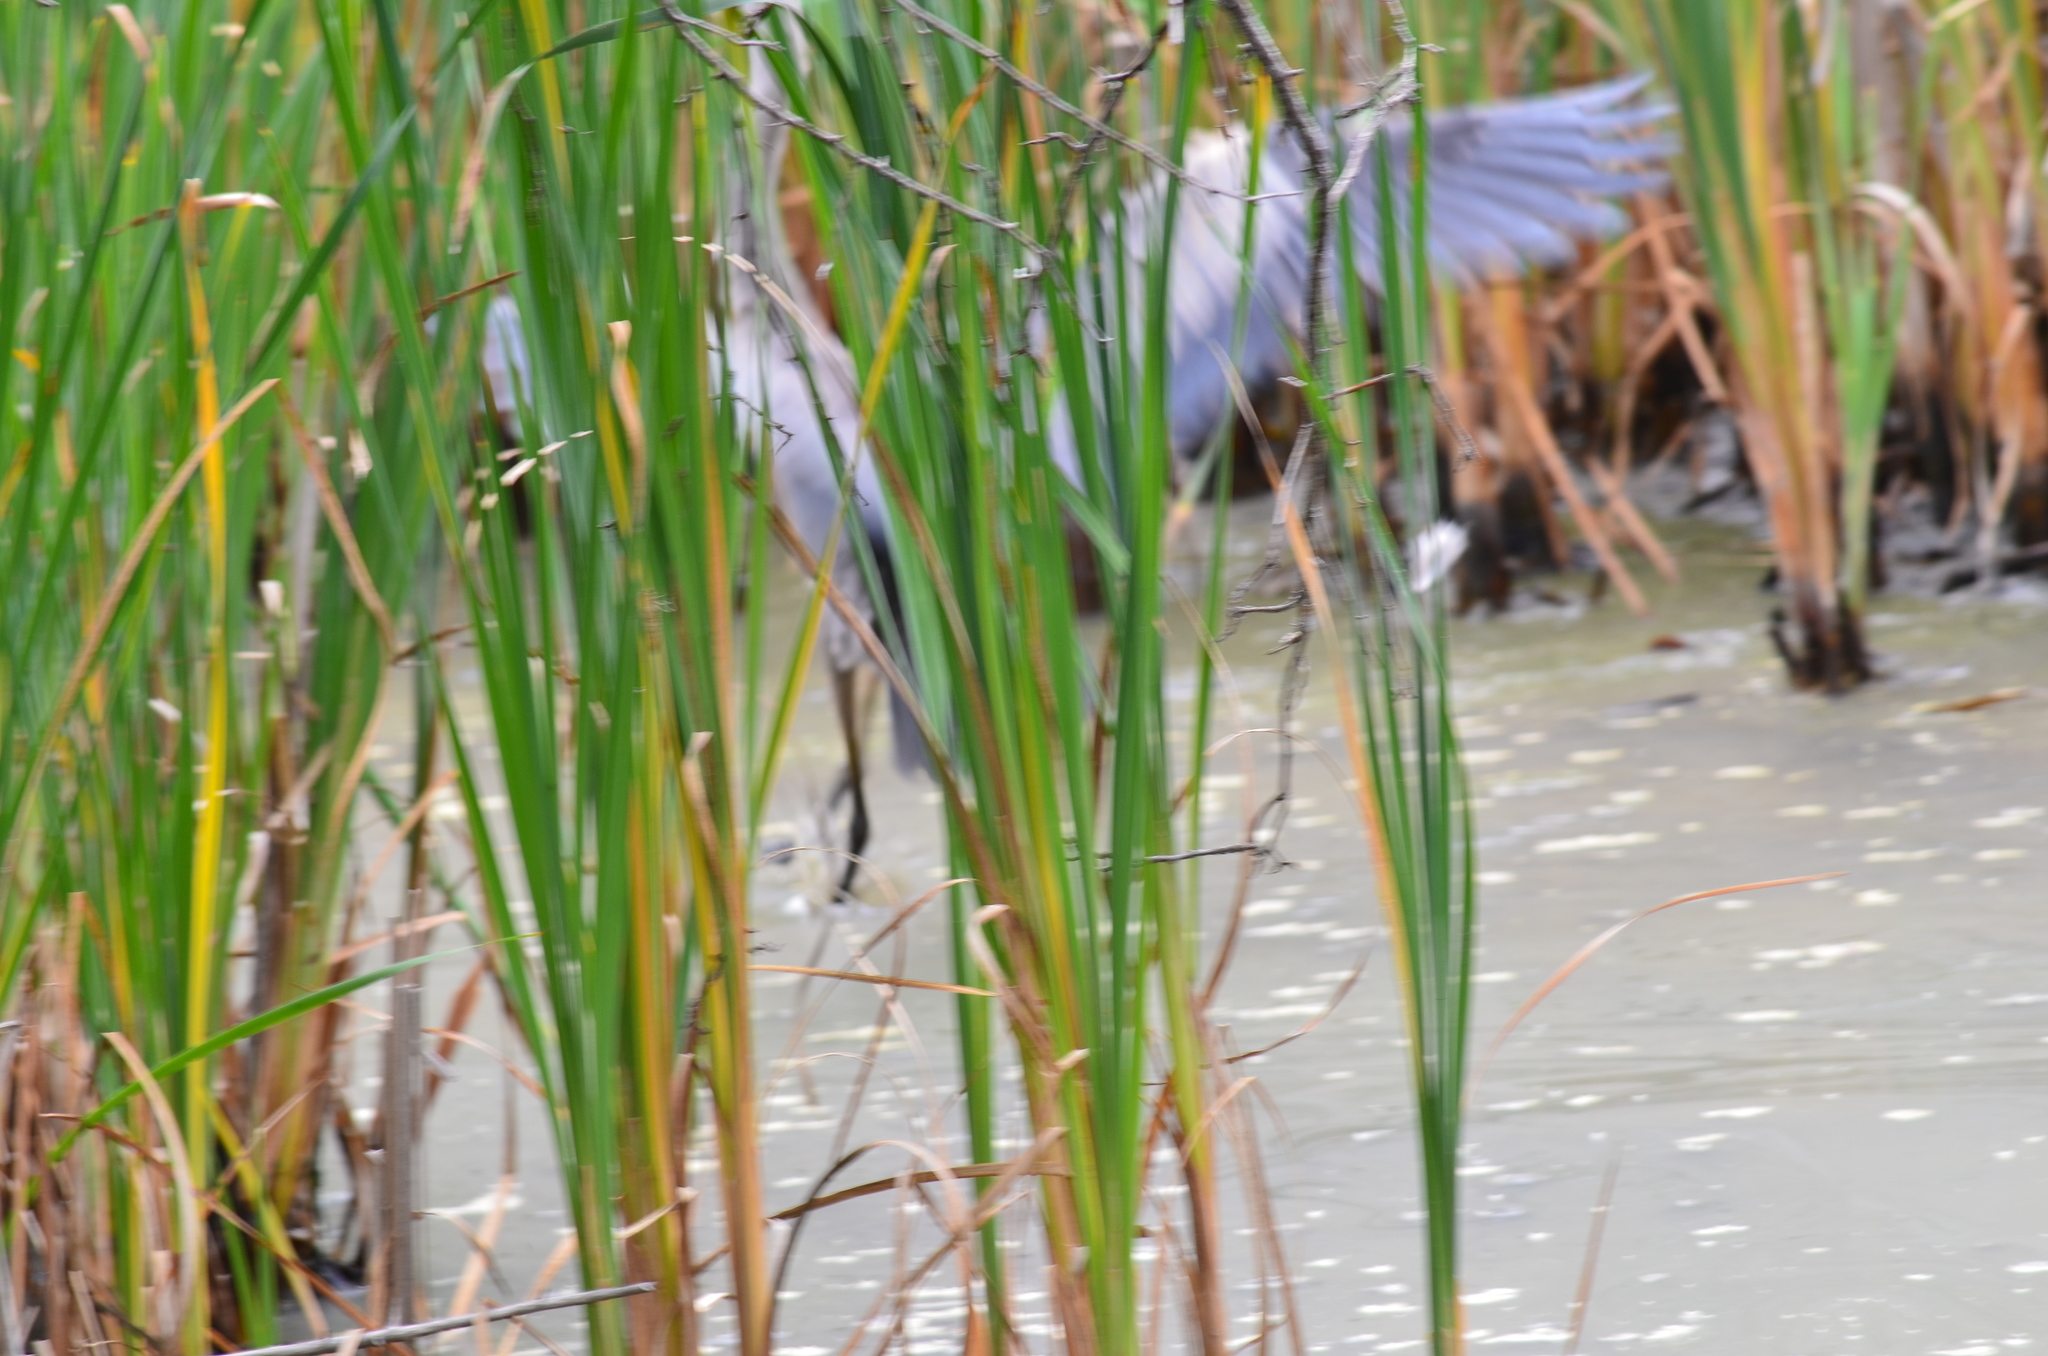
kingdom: Animalia
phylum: Chordata
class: Aves
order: Pelecaniformes
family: Ardeidae
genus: Ardea
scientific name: Ardea herodias
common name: Great blue heron
